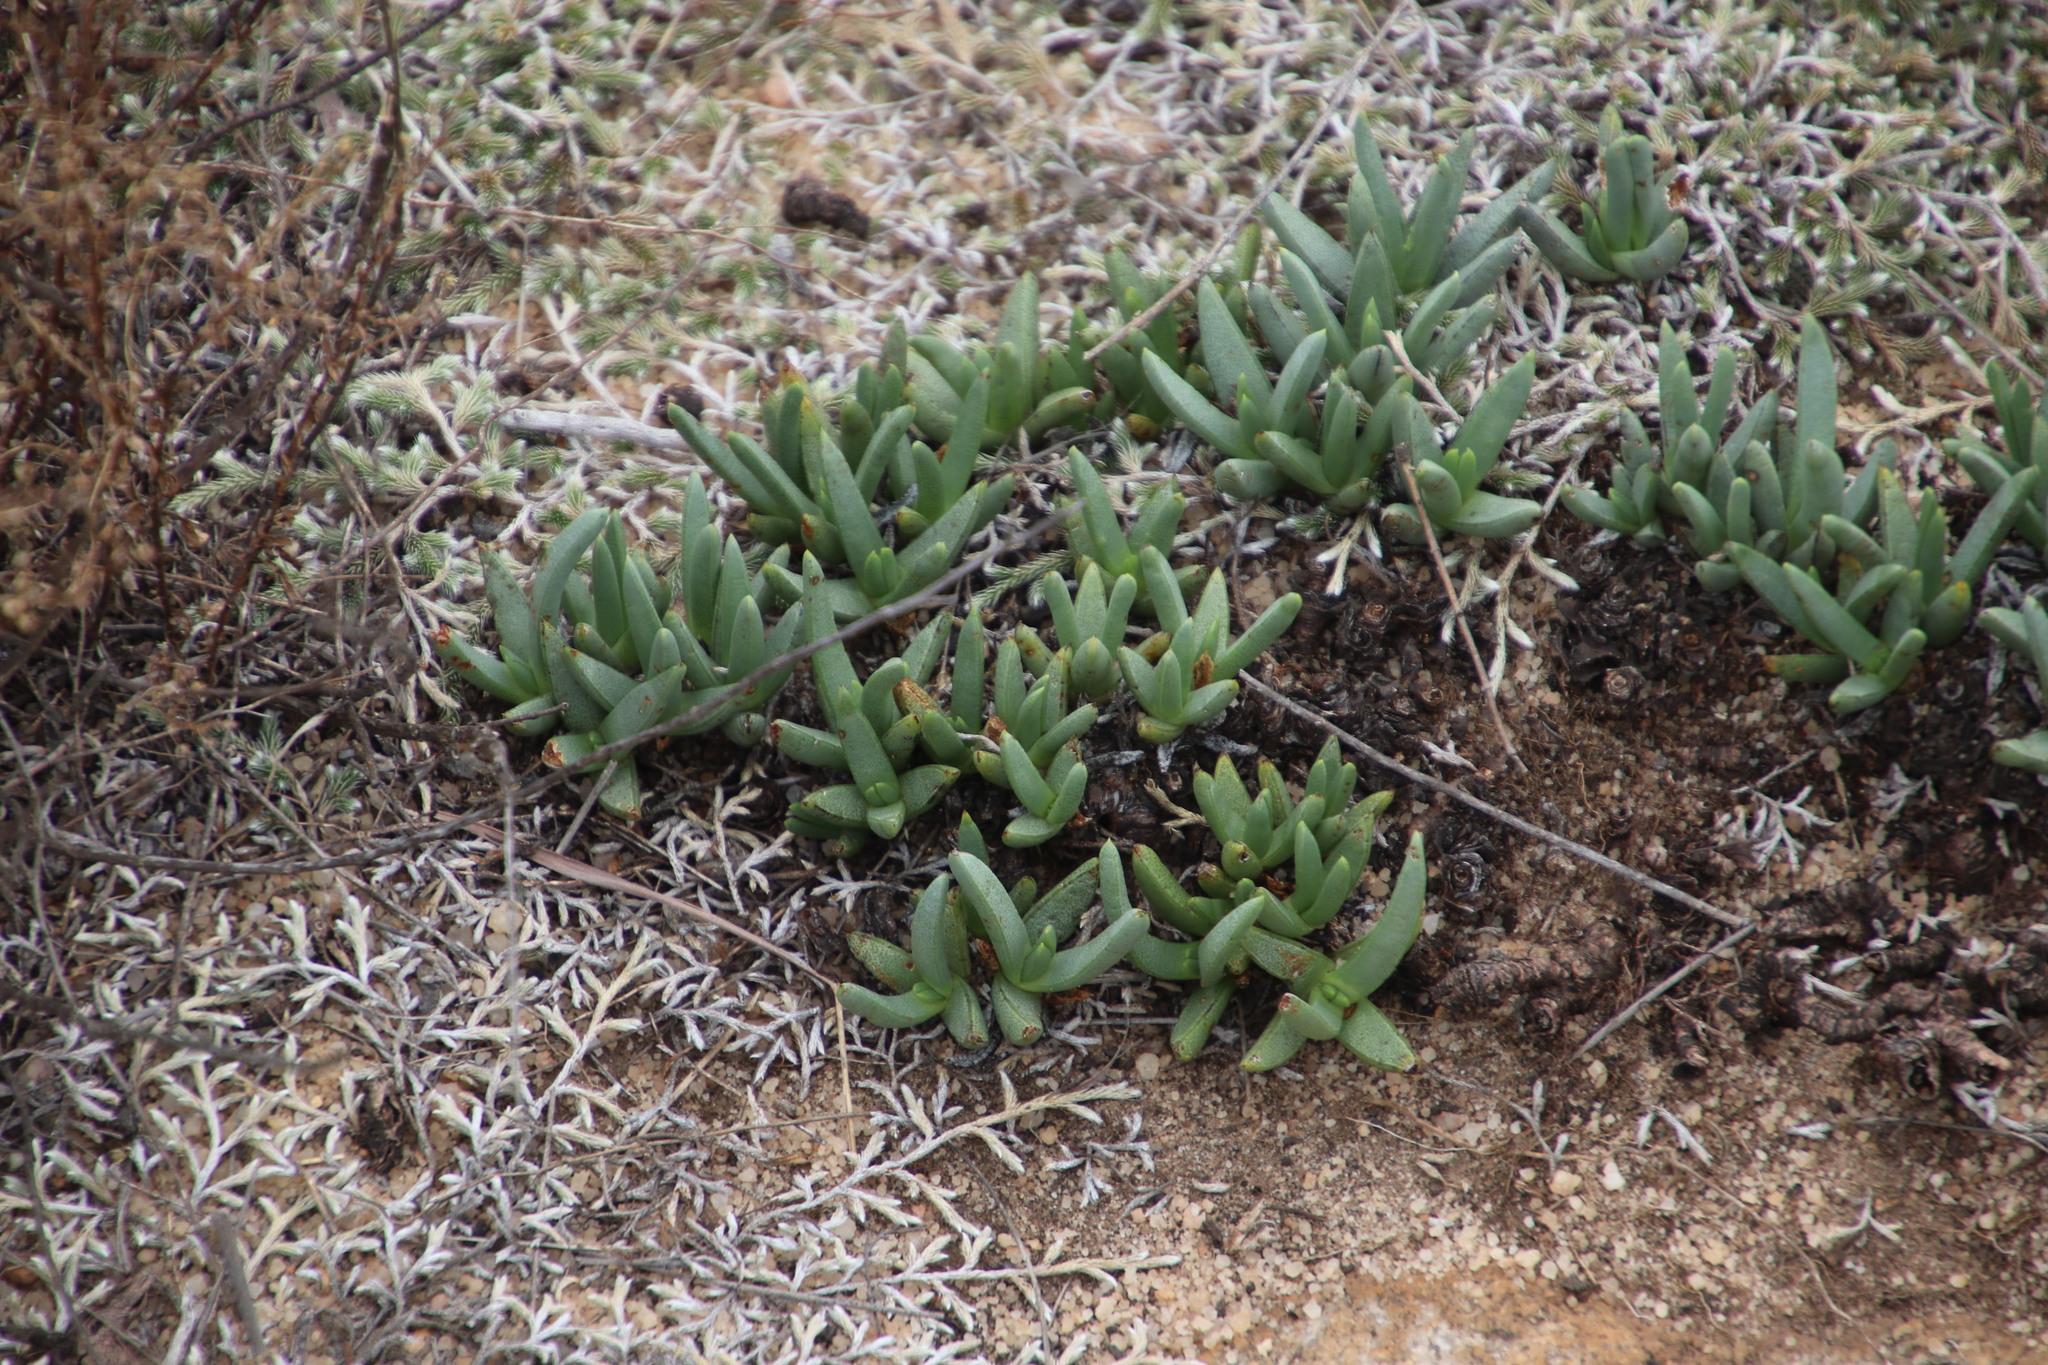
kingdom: Plantae
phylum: Tracheophyta
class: Magnoliopsida
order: Caryophyllales
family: Aizoaceae
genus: Khadia
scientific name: Khadia acutipetala
